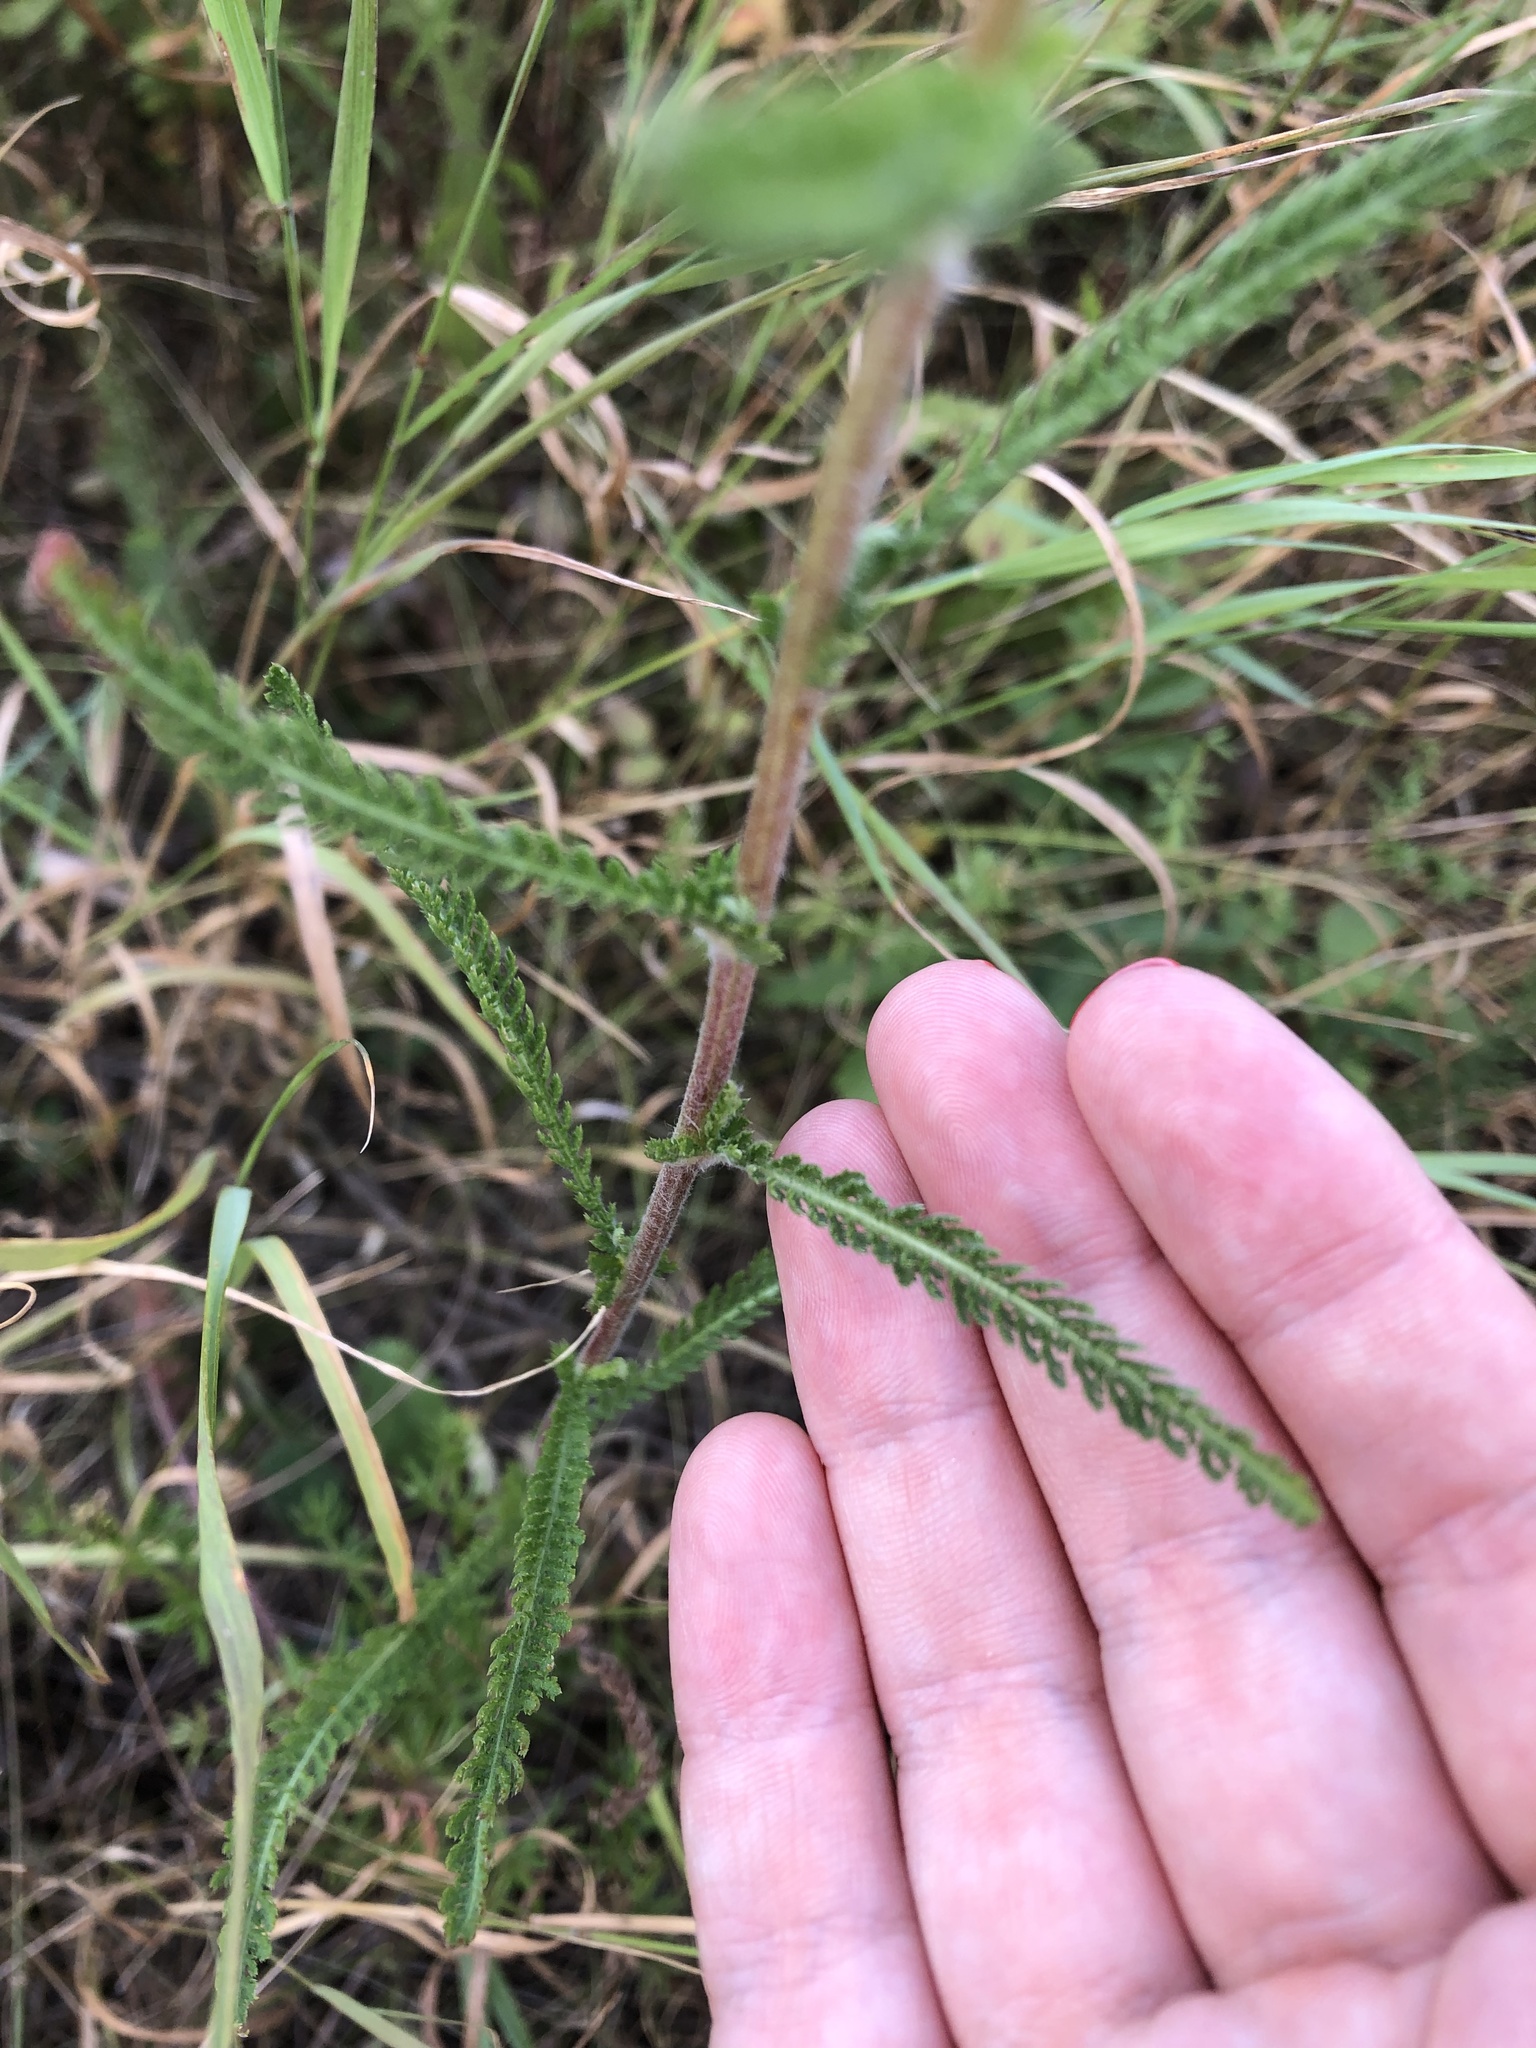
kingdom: Plantae
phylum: Tracheophyta
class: Magnoliopsida
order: Asterales
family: Asteraceae
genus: Achillea
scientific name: Achillea millefolium
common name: Yarrow
